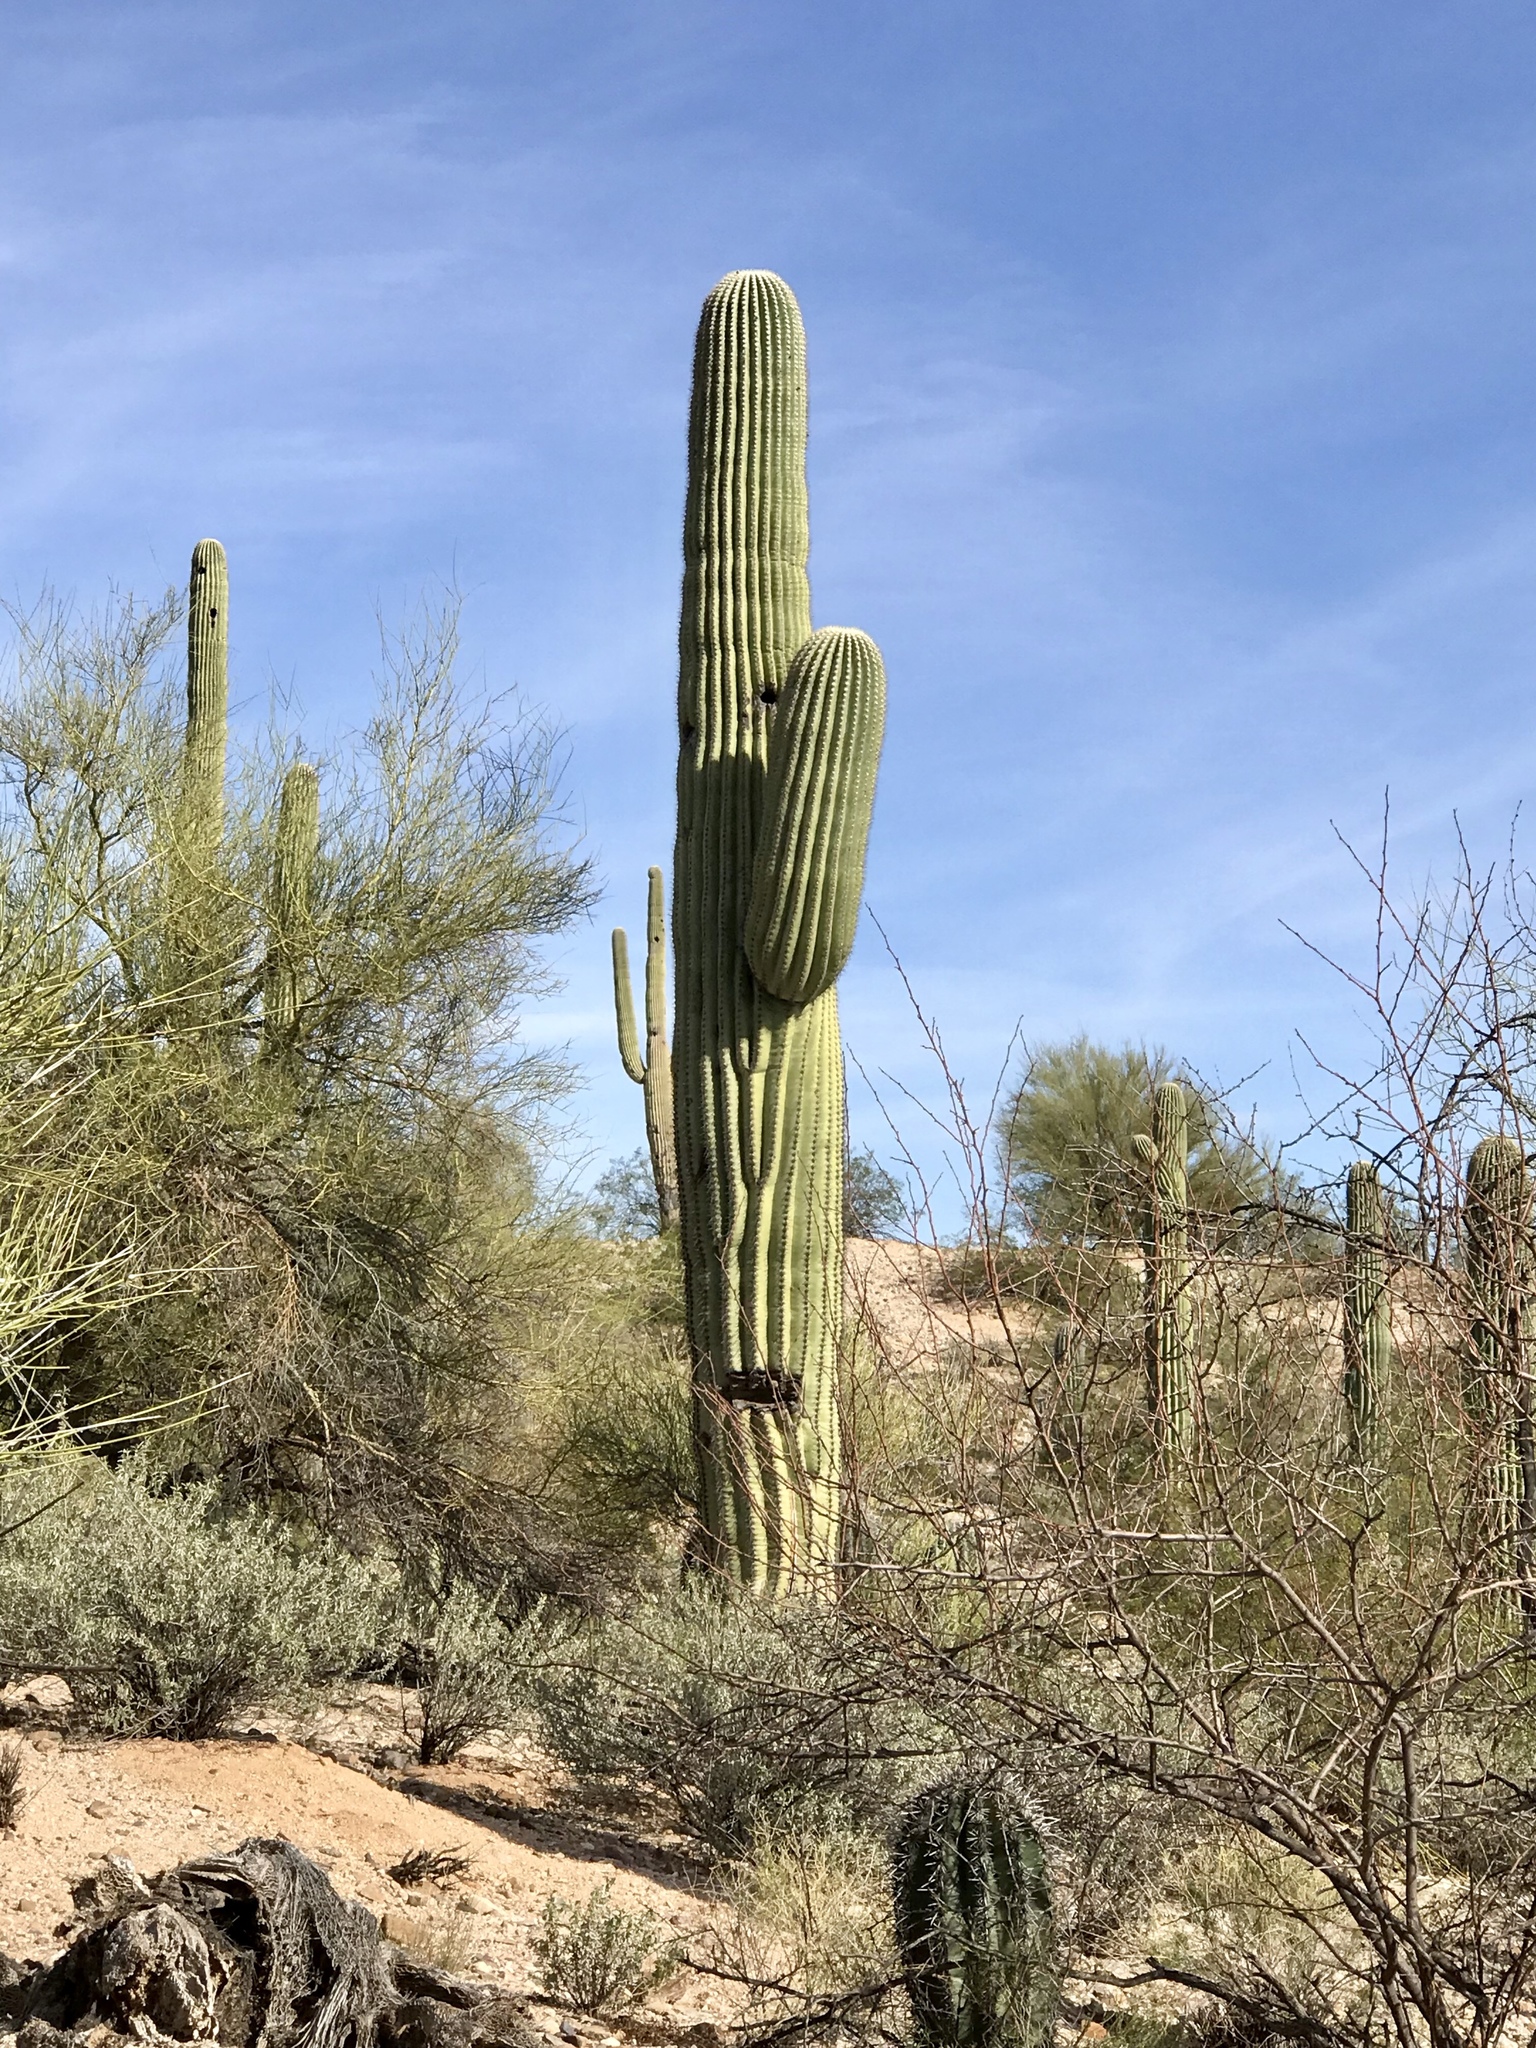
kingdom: Plantae
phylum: Tracheophyta
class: Magnoliopsida
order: Caryophyllales
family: Cactaceae
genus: Carnegiea
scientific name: Carnegiea gigantea
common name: Saguaro
